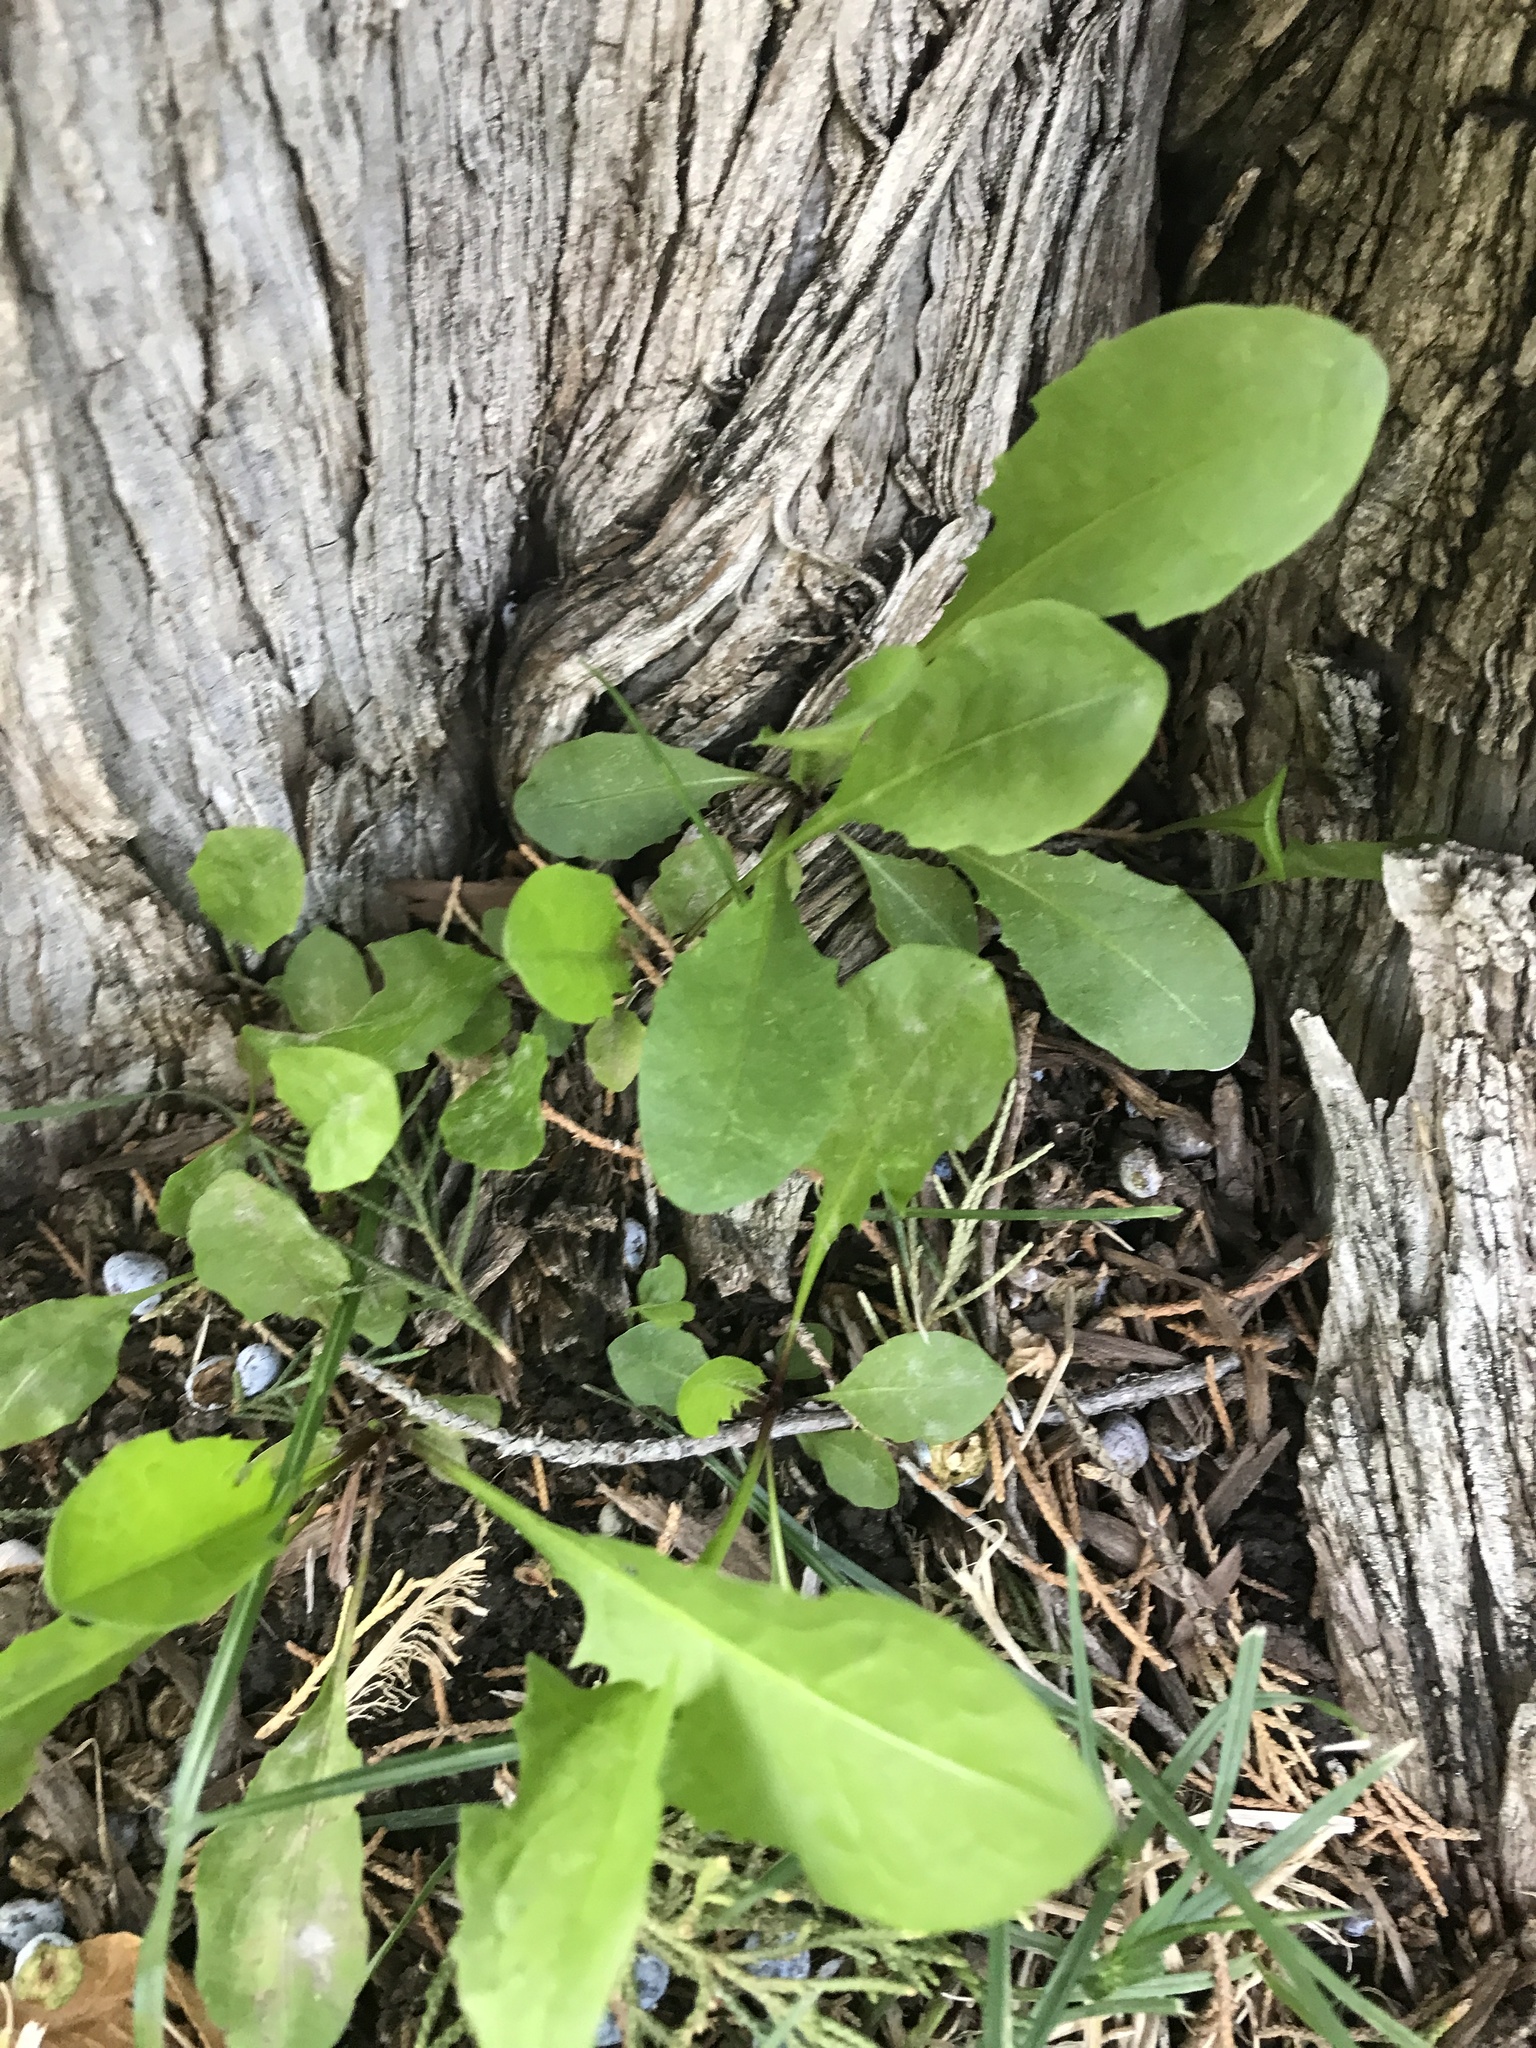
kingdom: Plantae
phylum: Tracheophyta
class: Magnoliopsida
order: Asterales
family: Asteraceae
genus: Taraxacum
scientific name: Taraxacum officinale
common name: Common dandelion
